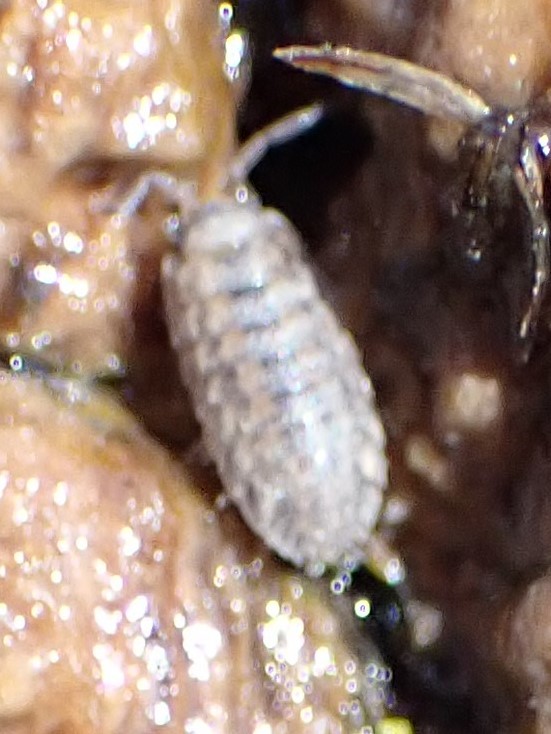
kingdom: Animalia
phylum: Arthropoda
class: Malacostraca
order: Isopoda
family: Trachelipodidae
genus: Trachelipus
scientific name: Trachelipus rathkii
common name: Isopod
